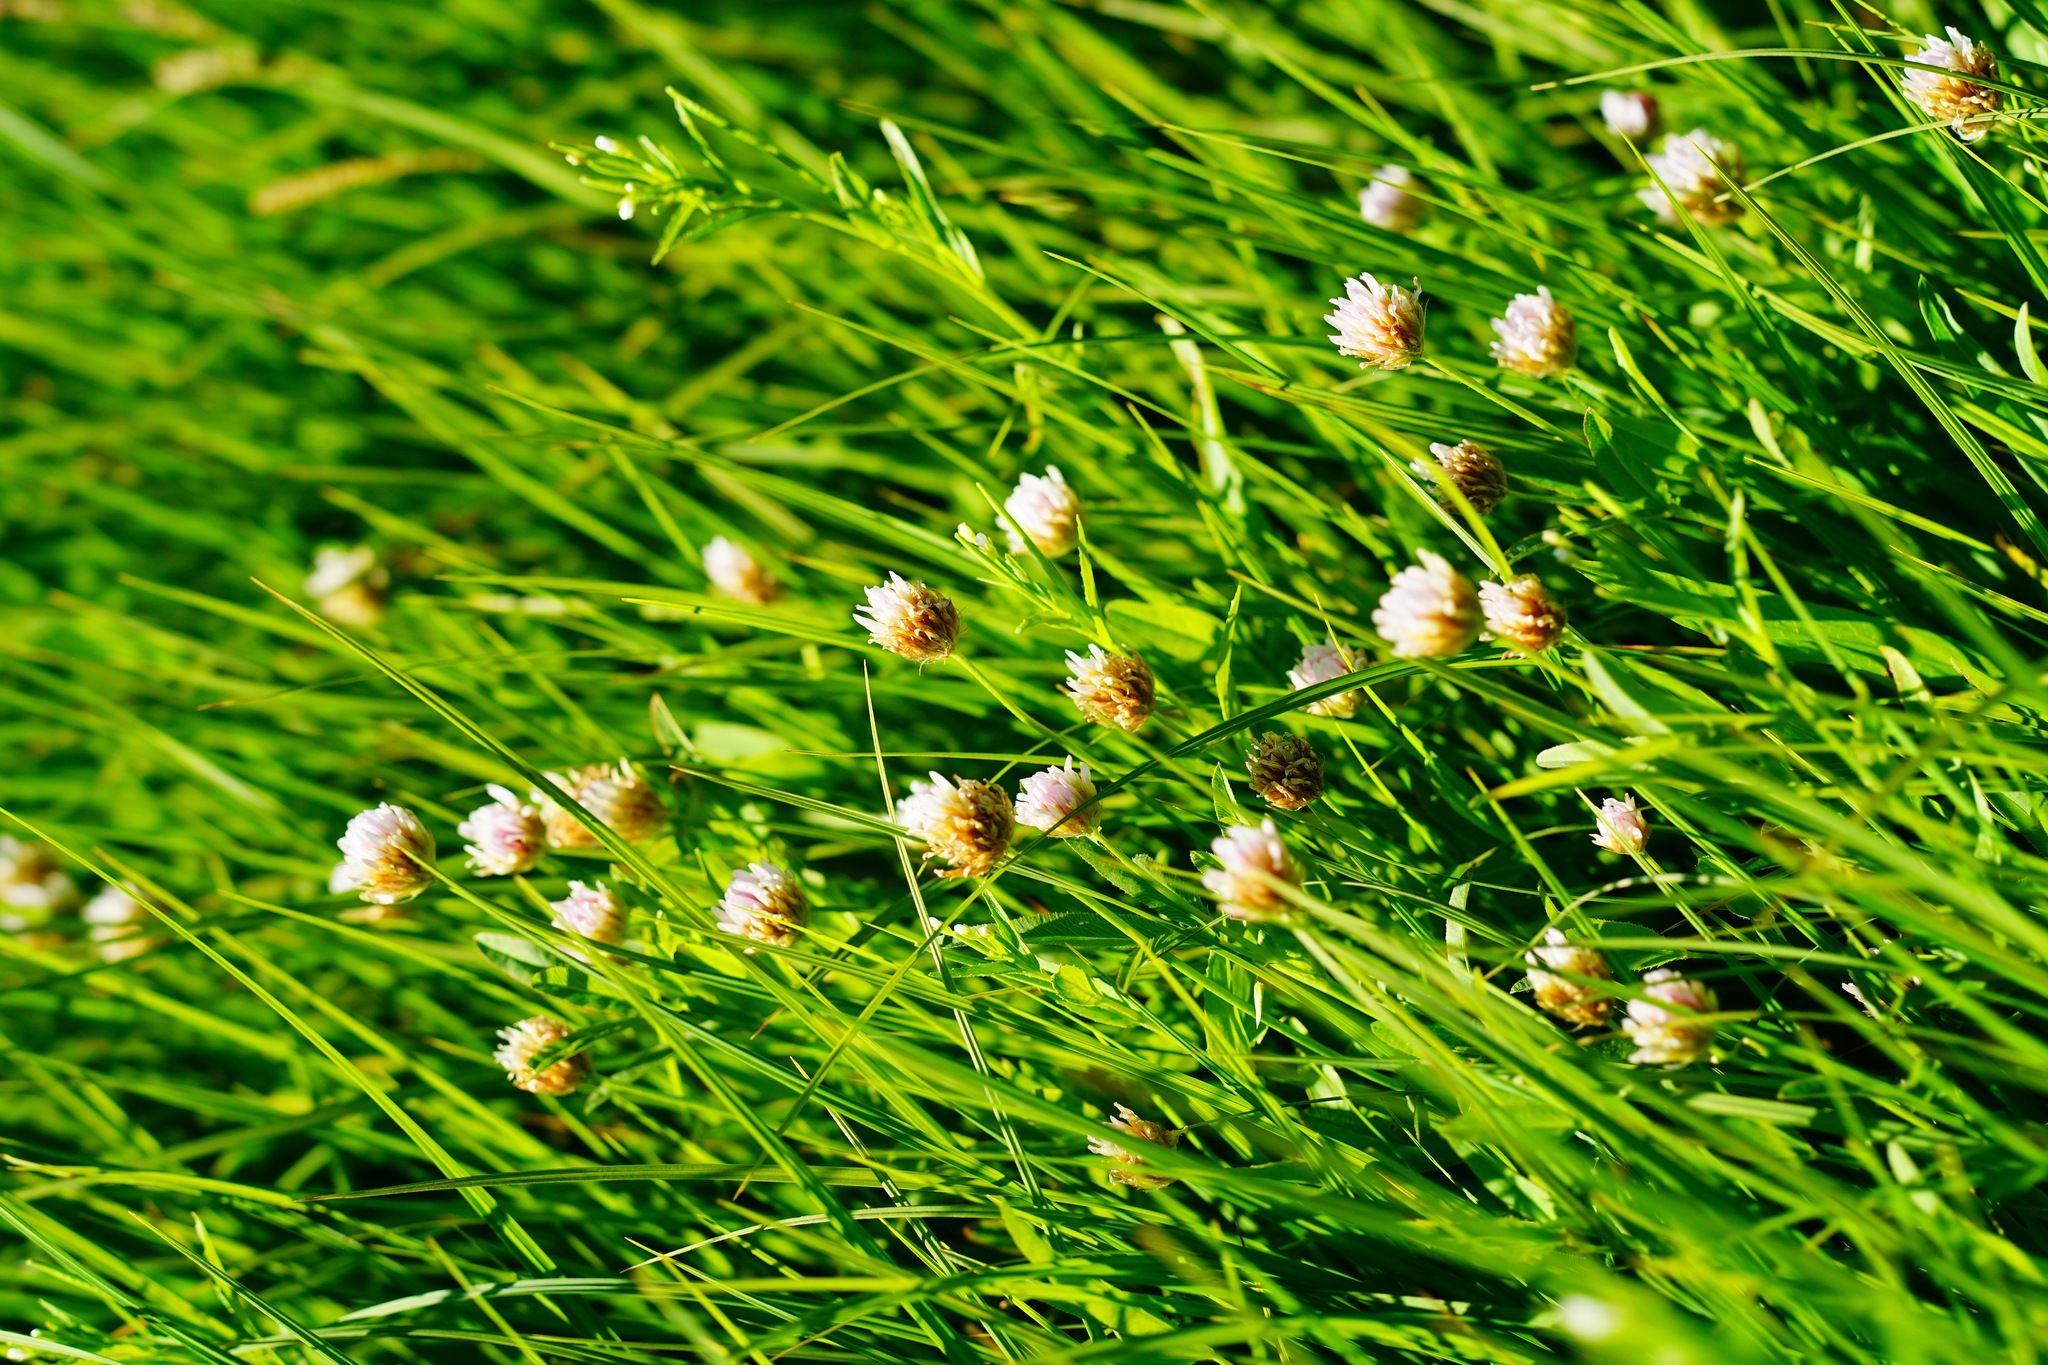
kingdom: Plantae
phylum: Tracheophyta
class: Magnoliopsida
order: Fabales
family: Fabaceae
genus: Trifolium
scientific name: Trifolium longipes
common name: Long-stalk clover
